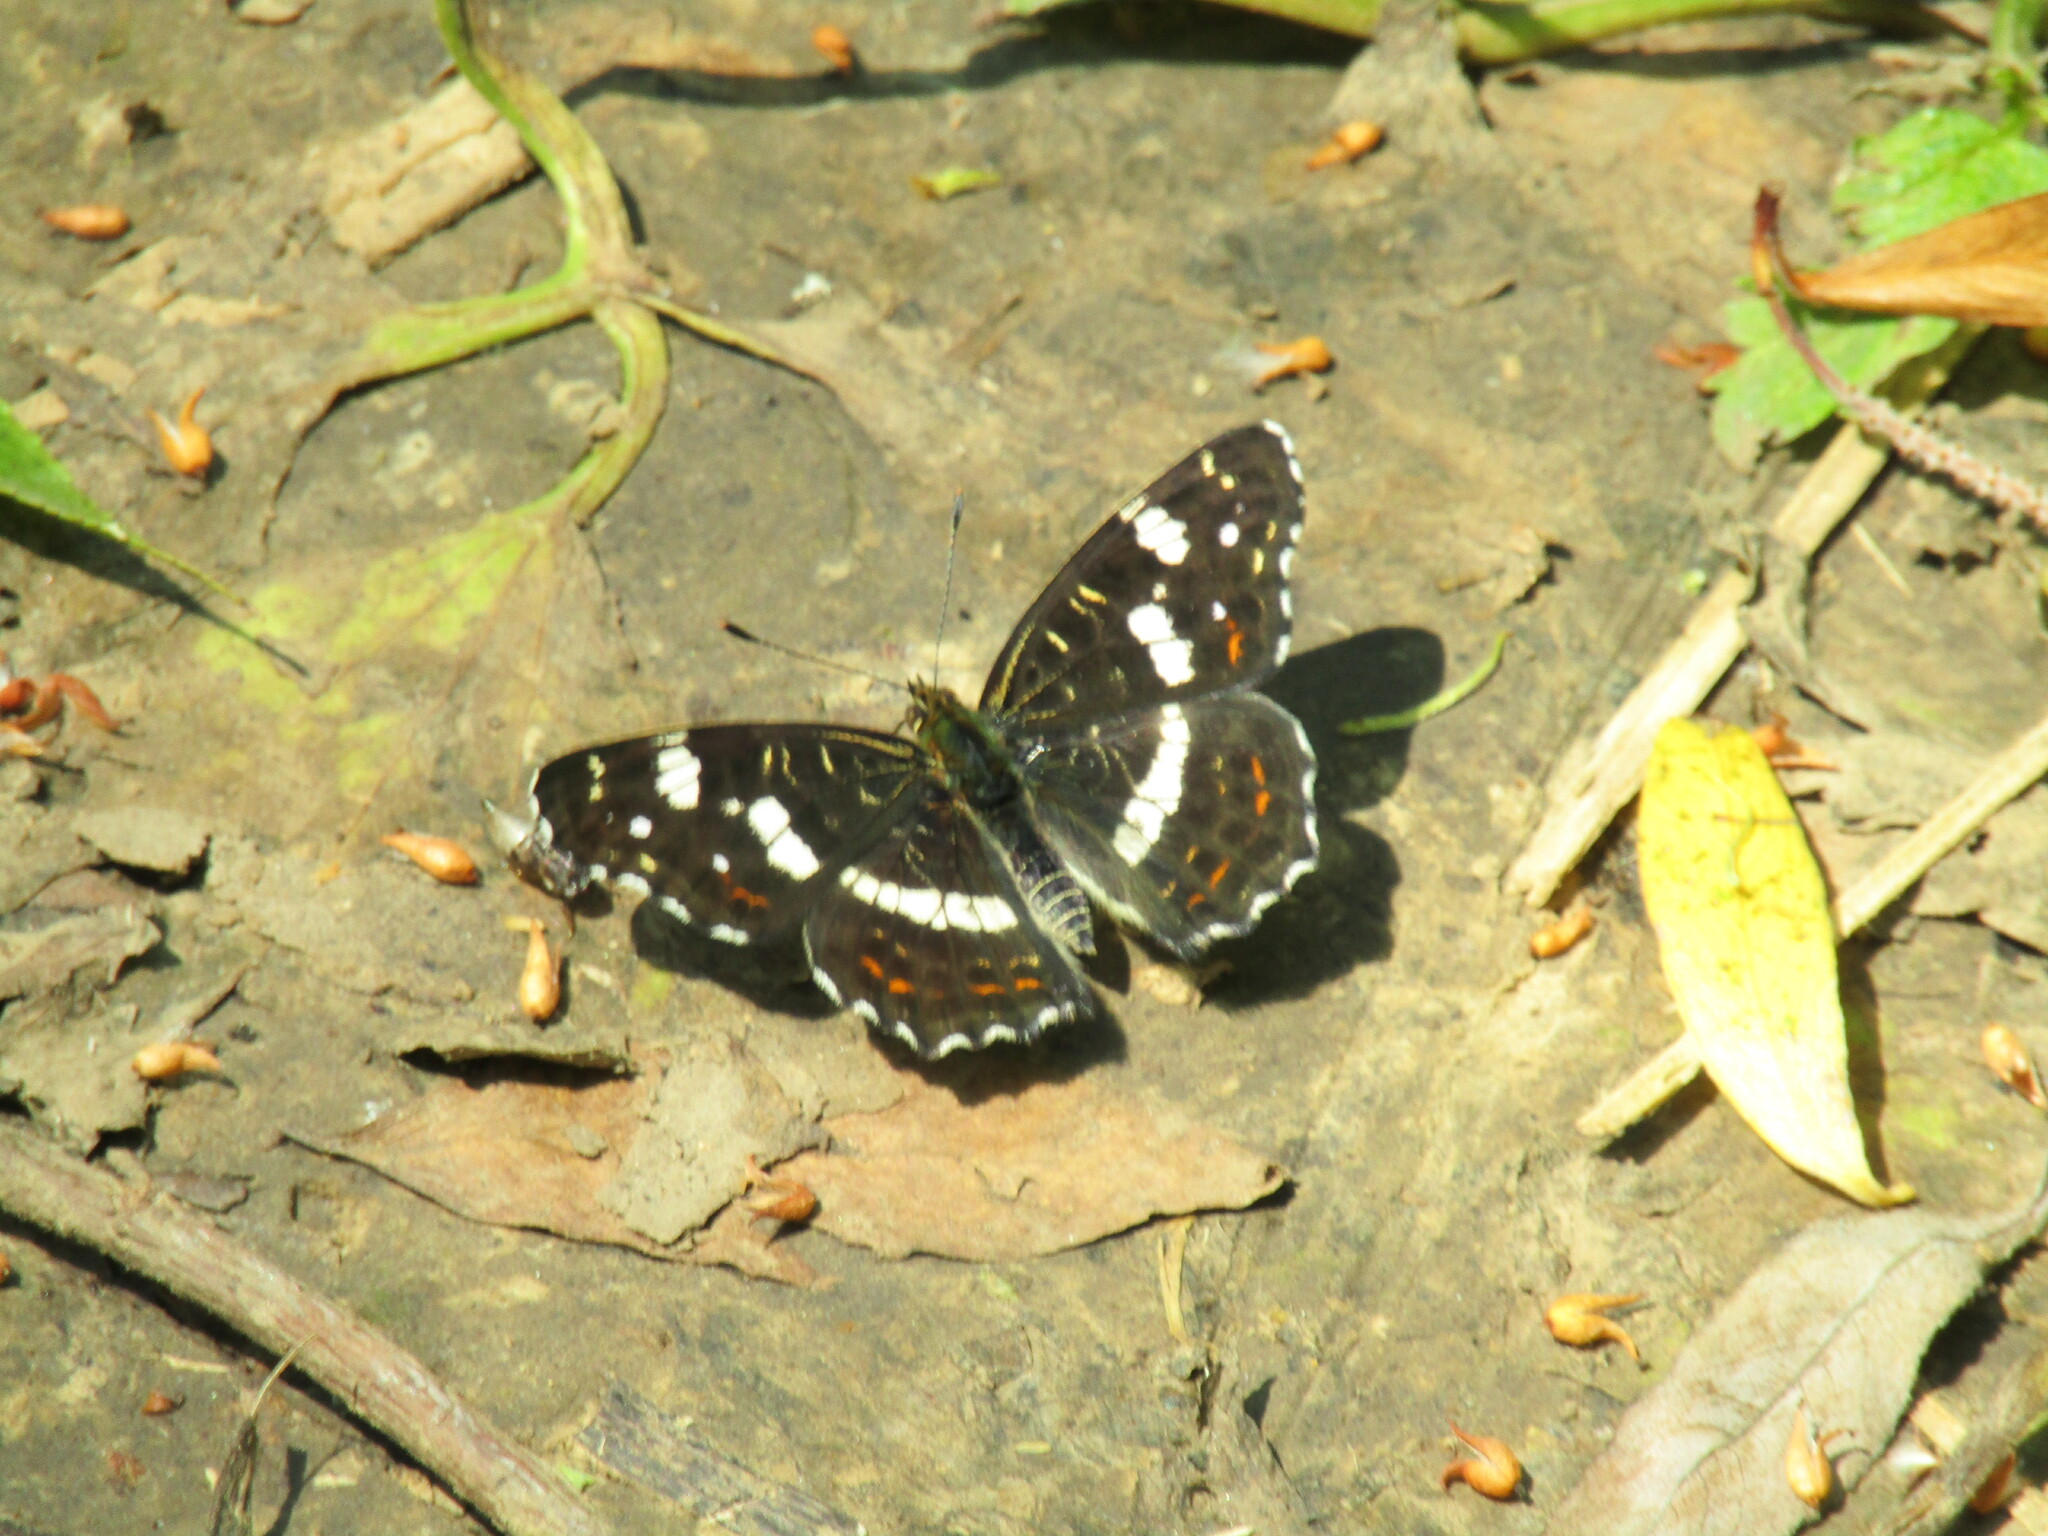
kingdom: Animalia
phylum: Arthropoda
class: Insecta
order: Lepidoptera
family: Nymphalidae
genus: Araschnia
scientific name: Araschnia levana
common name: Map butterfly
